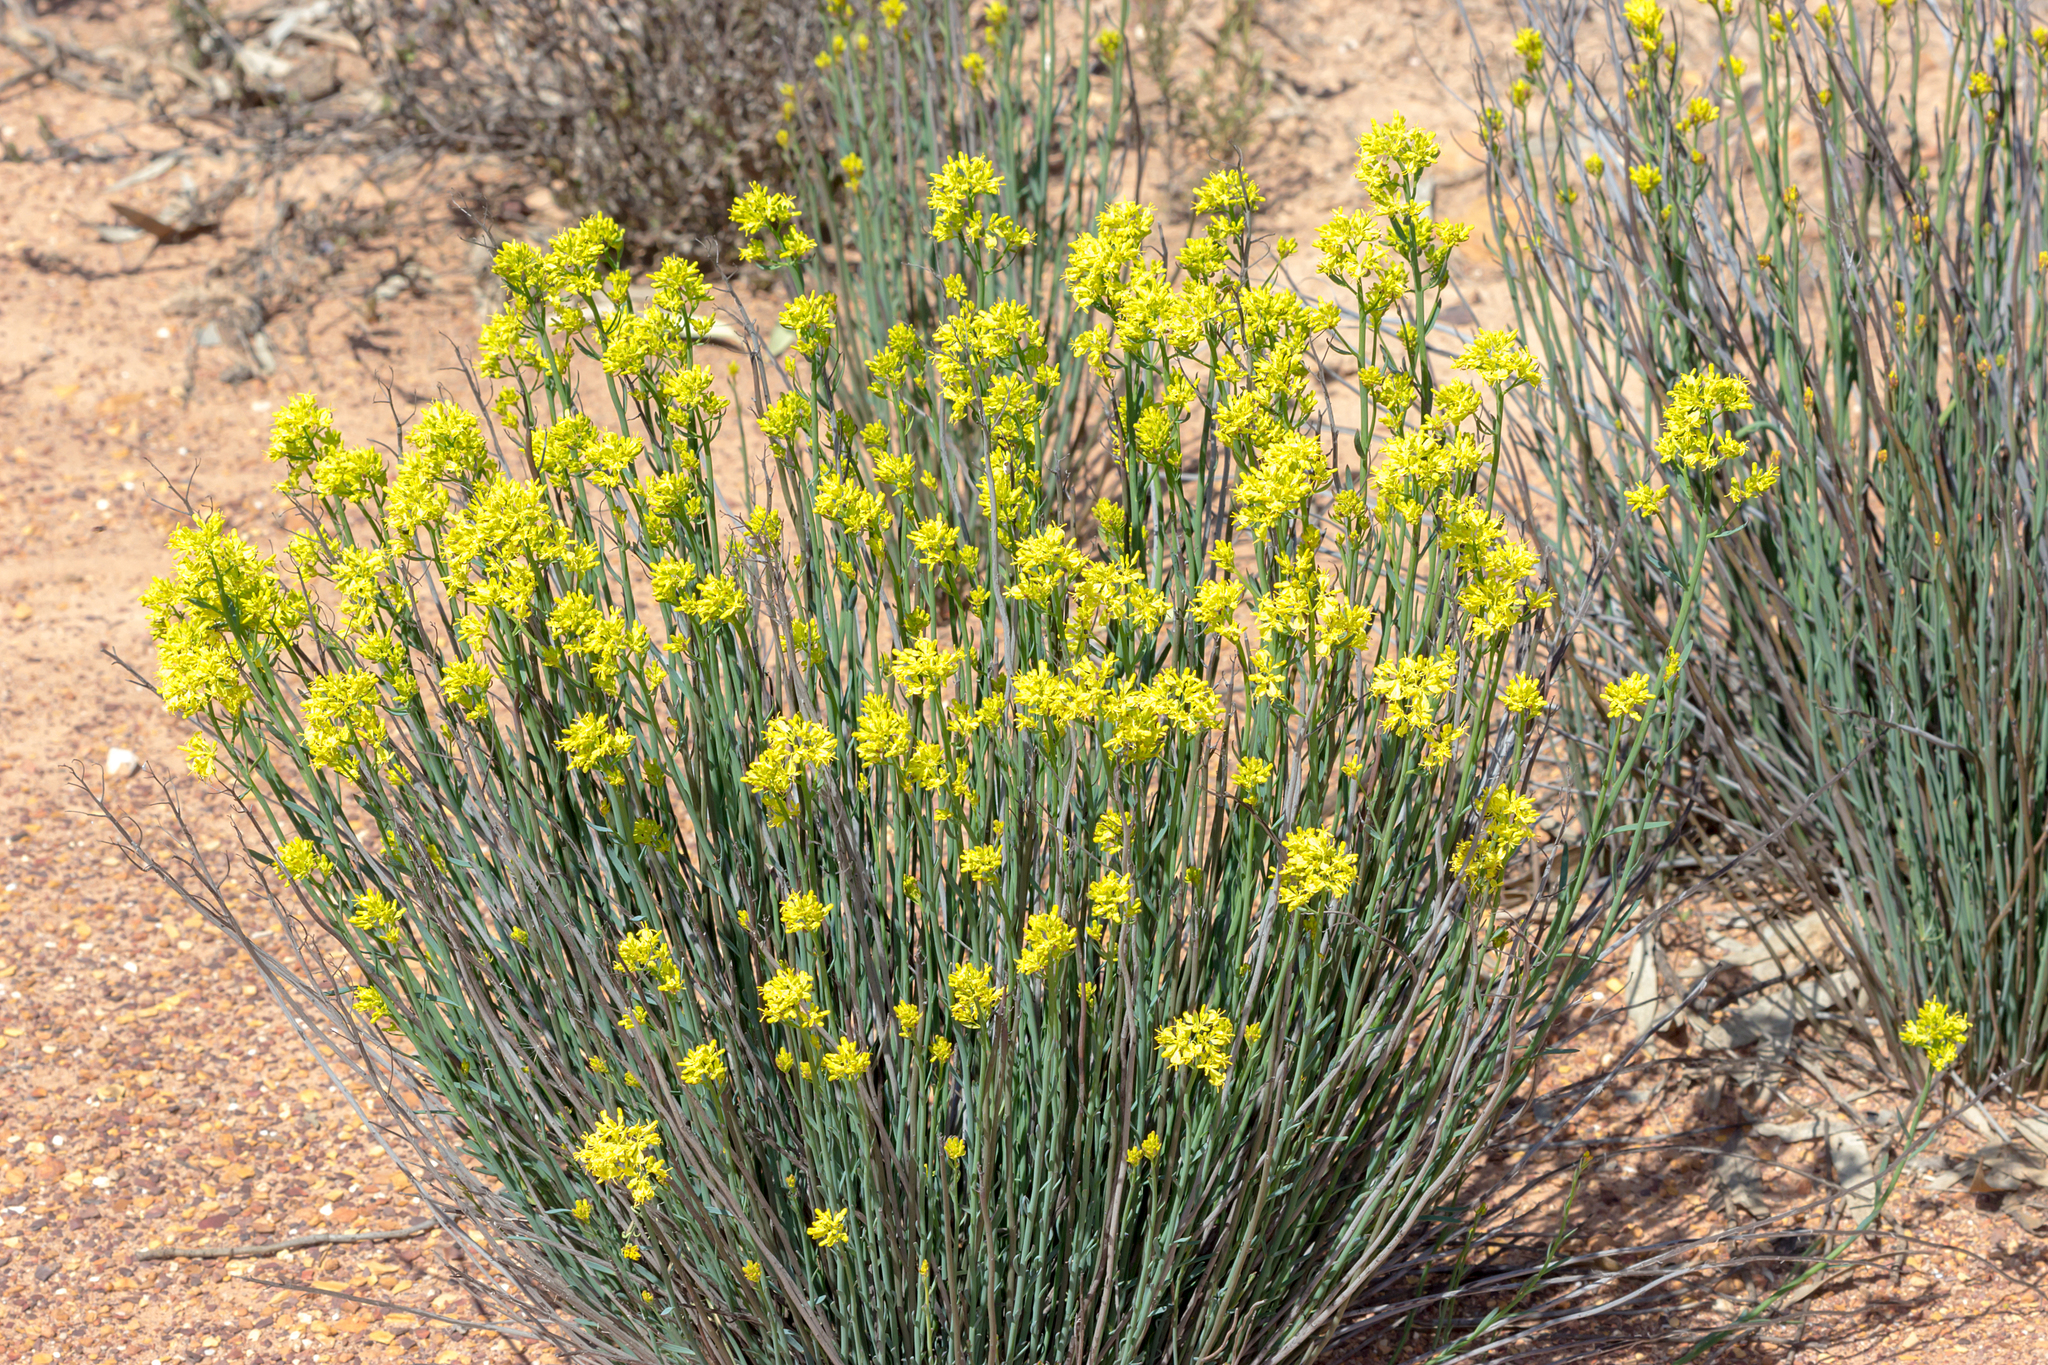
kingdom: Plantae
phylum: Tracheophyta
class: Magnoliopsida
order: Saxifragales
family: Haloragaceae
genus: Glischrocaryon
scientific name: Glischrocaryon behrii
